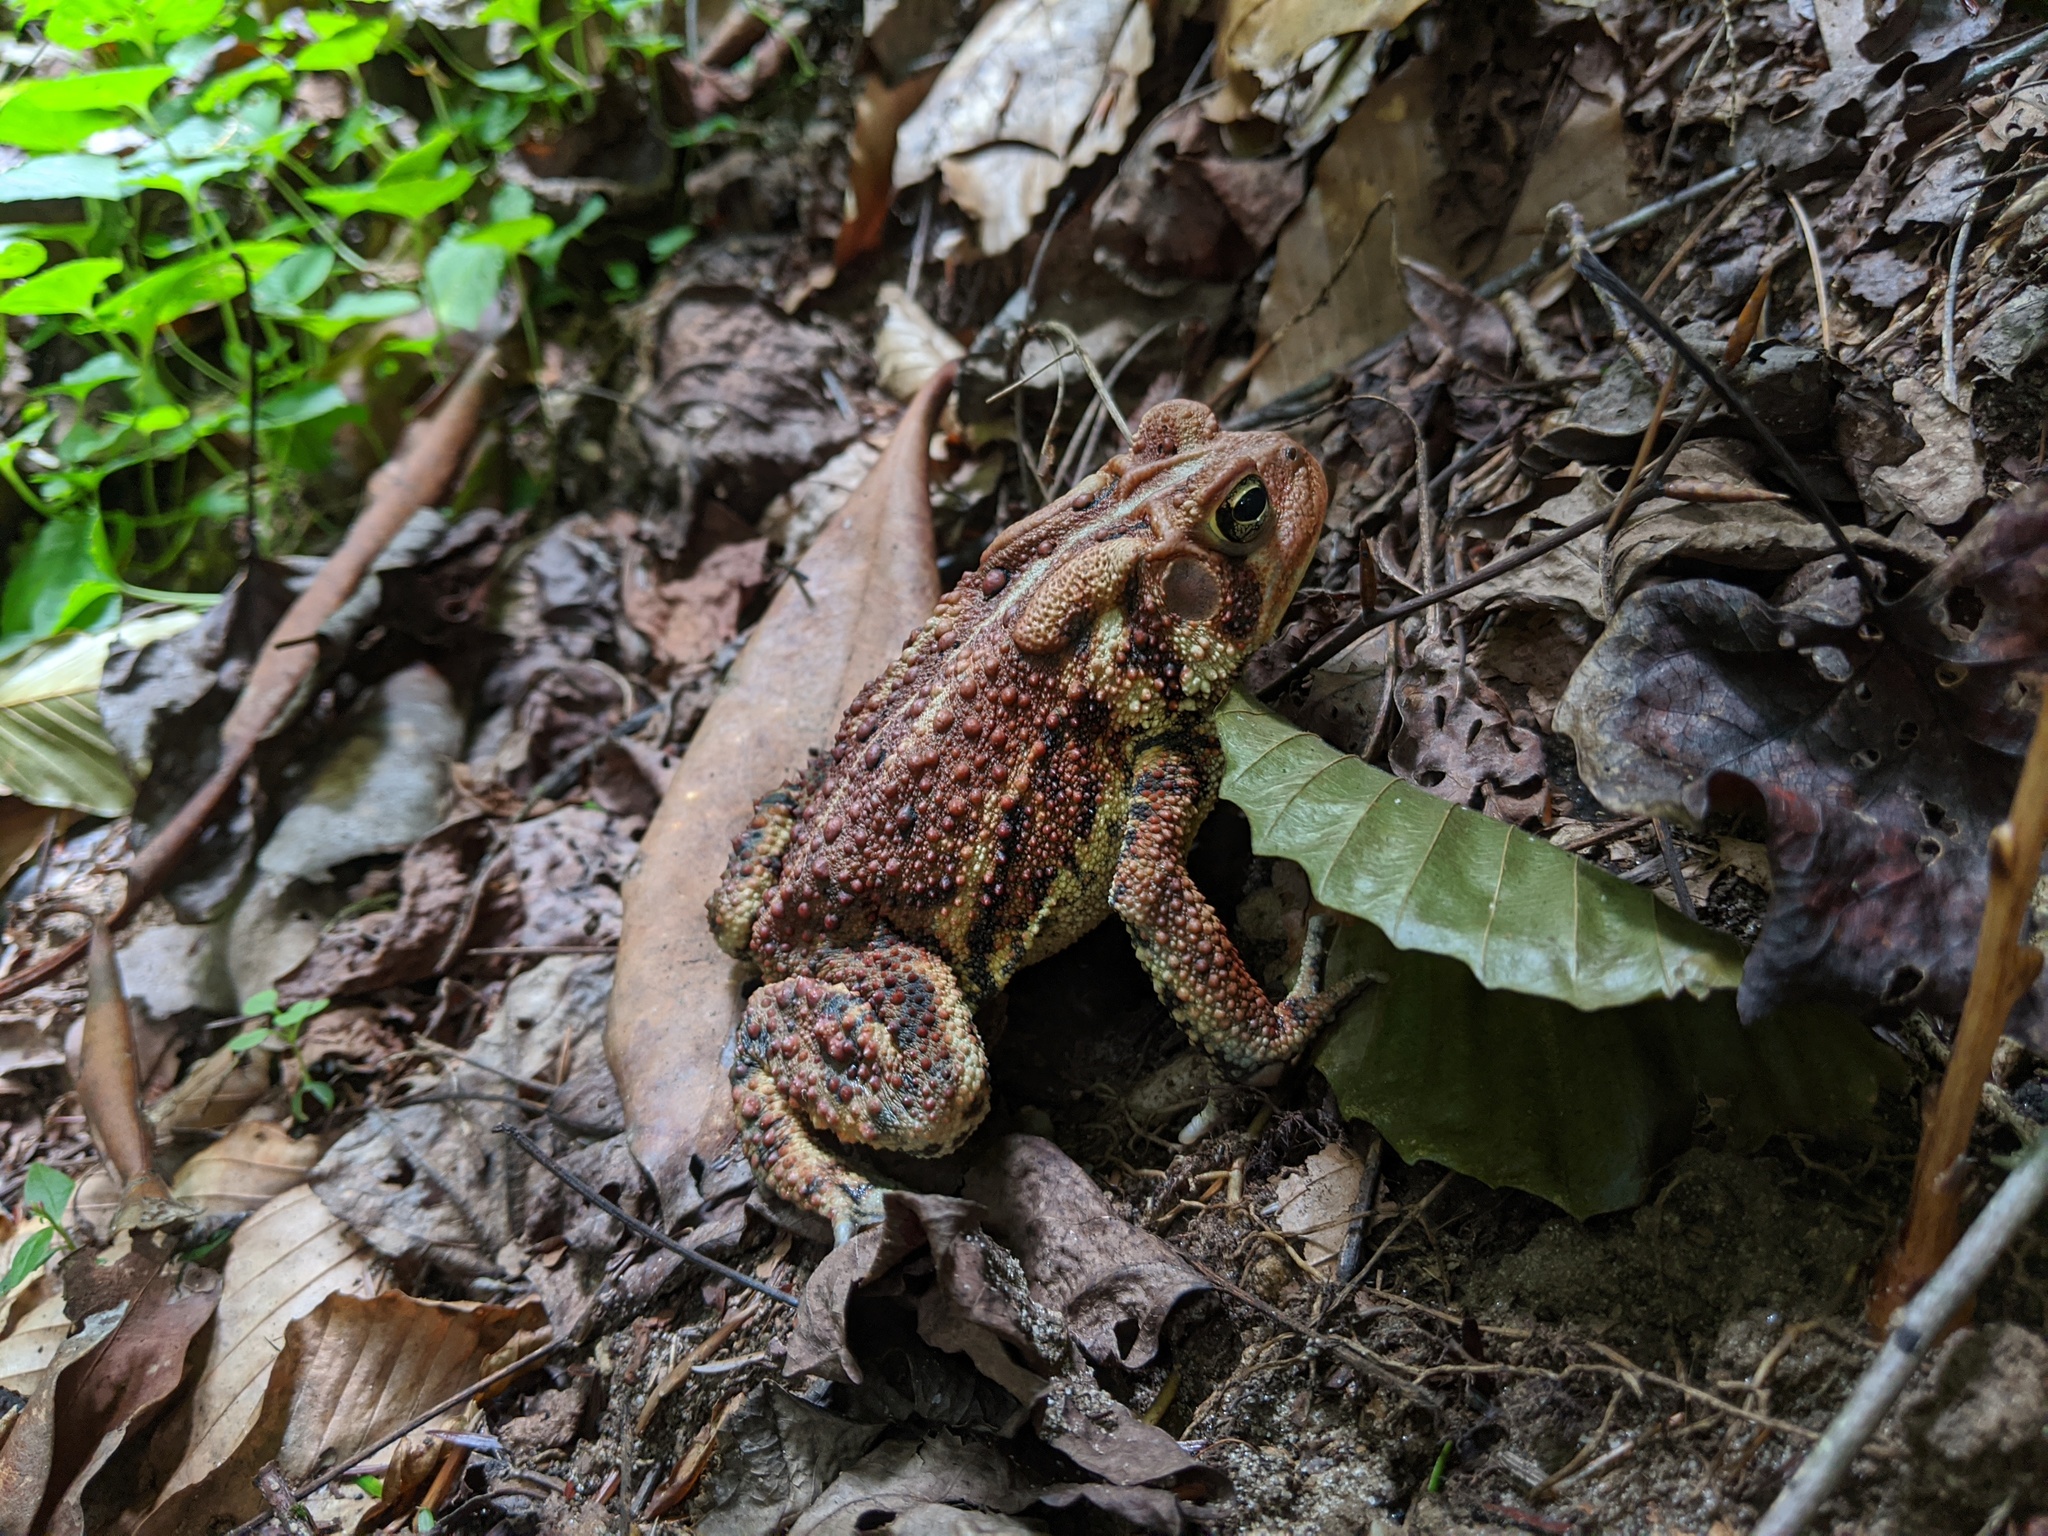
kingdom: Animalia
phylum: Chordata
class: Amphibia
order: Anura
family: Bufonidae
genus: Anaxyrus
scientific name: Anaxyrus americanus
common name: American toad
